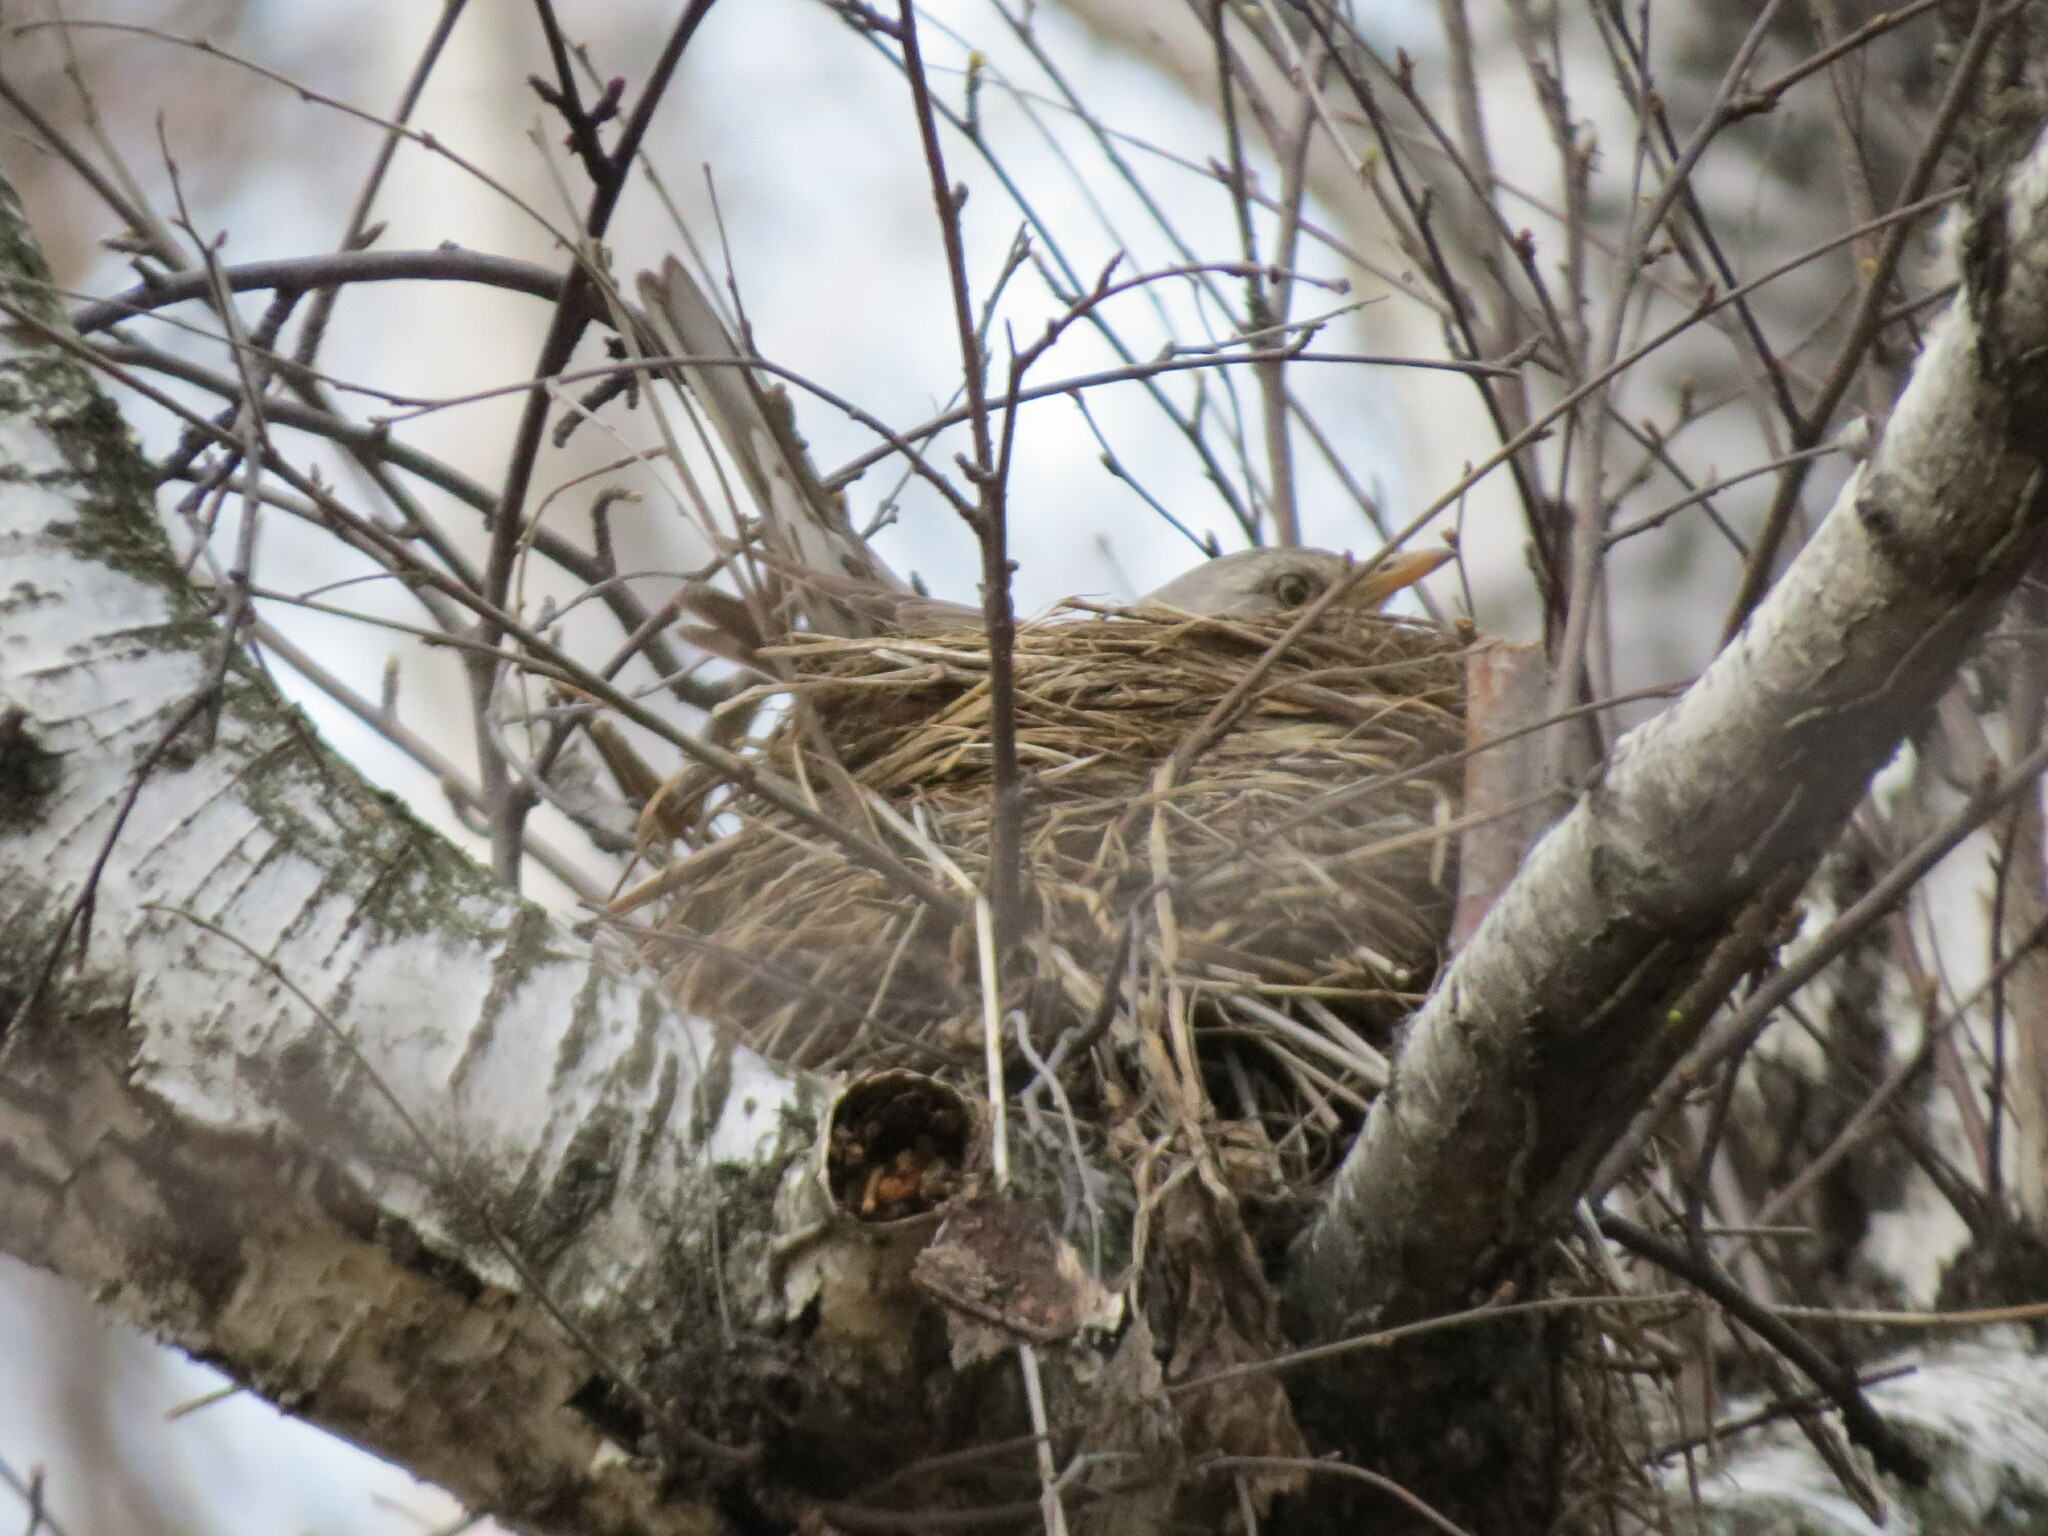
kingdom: Animalia
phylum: Chordata
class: Aves
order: Passeriformes
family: Turdidae
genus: Turdus
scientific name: Turdus pilaris
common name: Fieldfare
